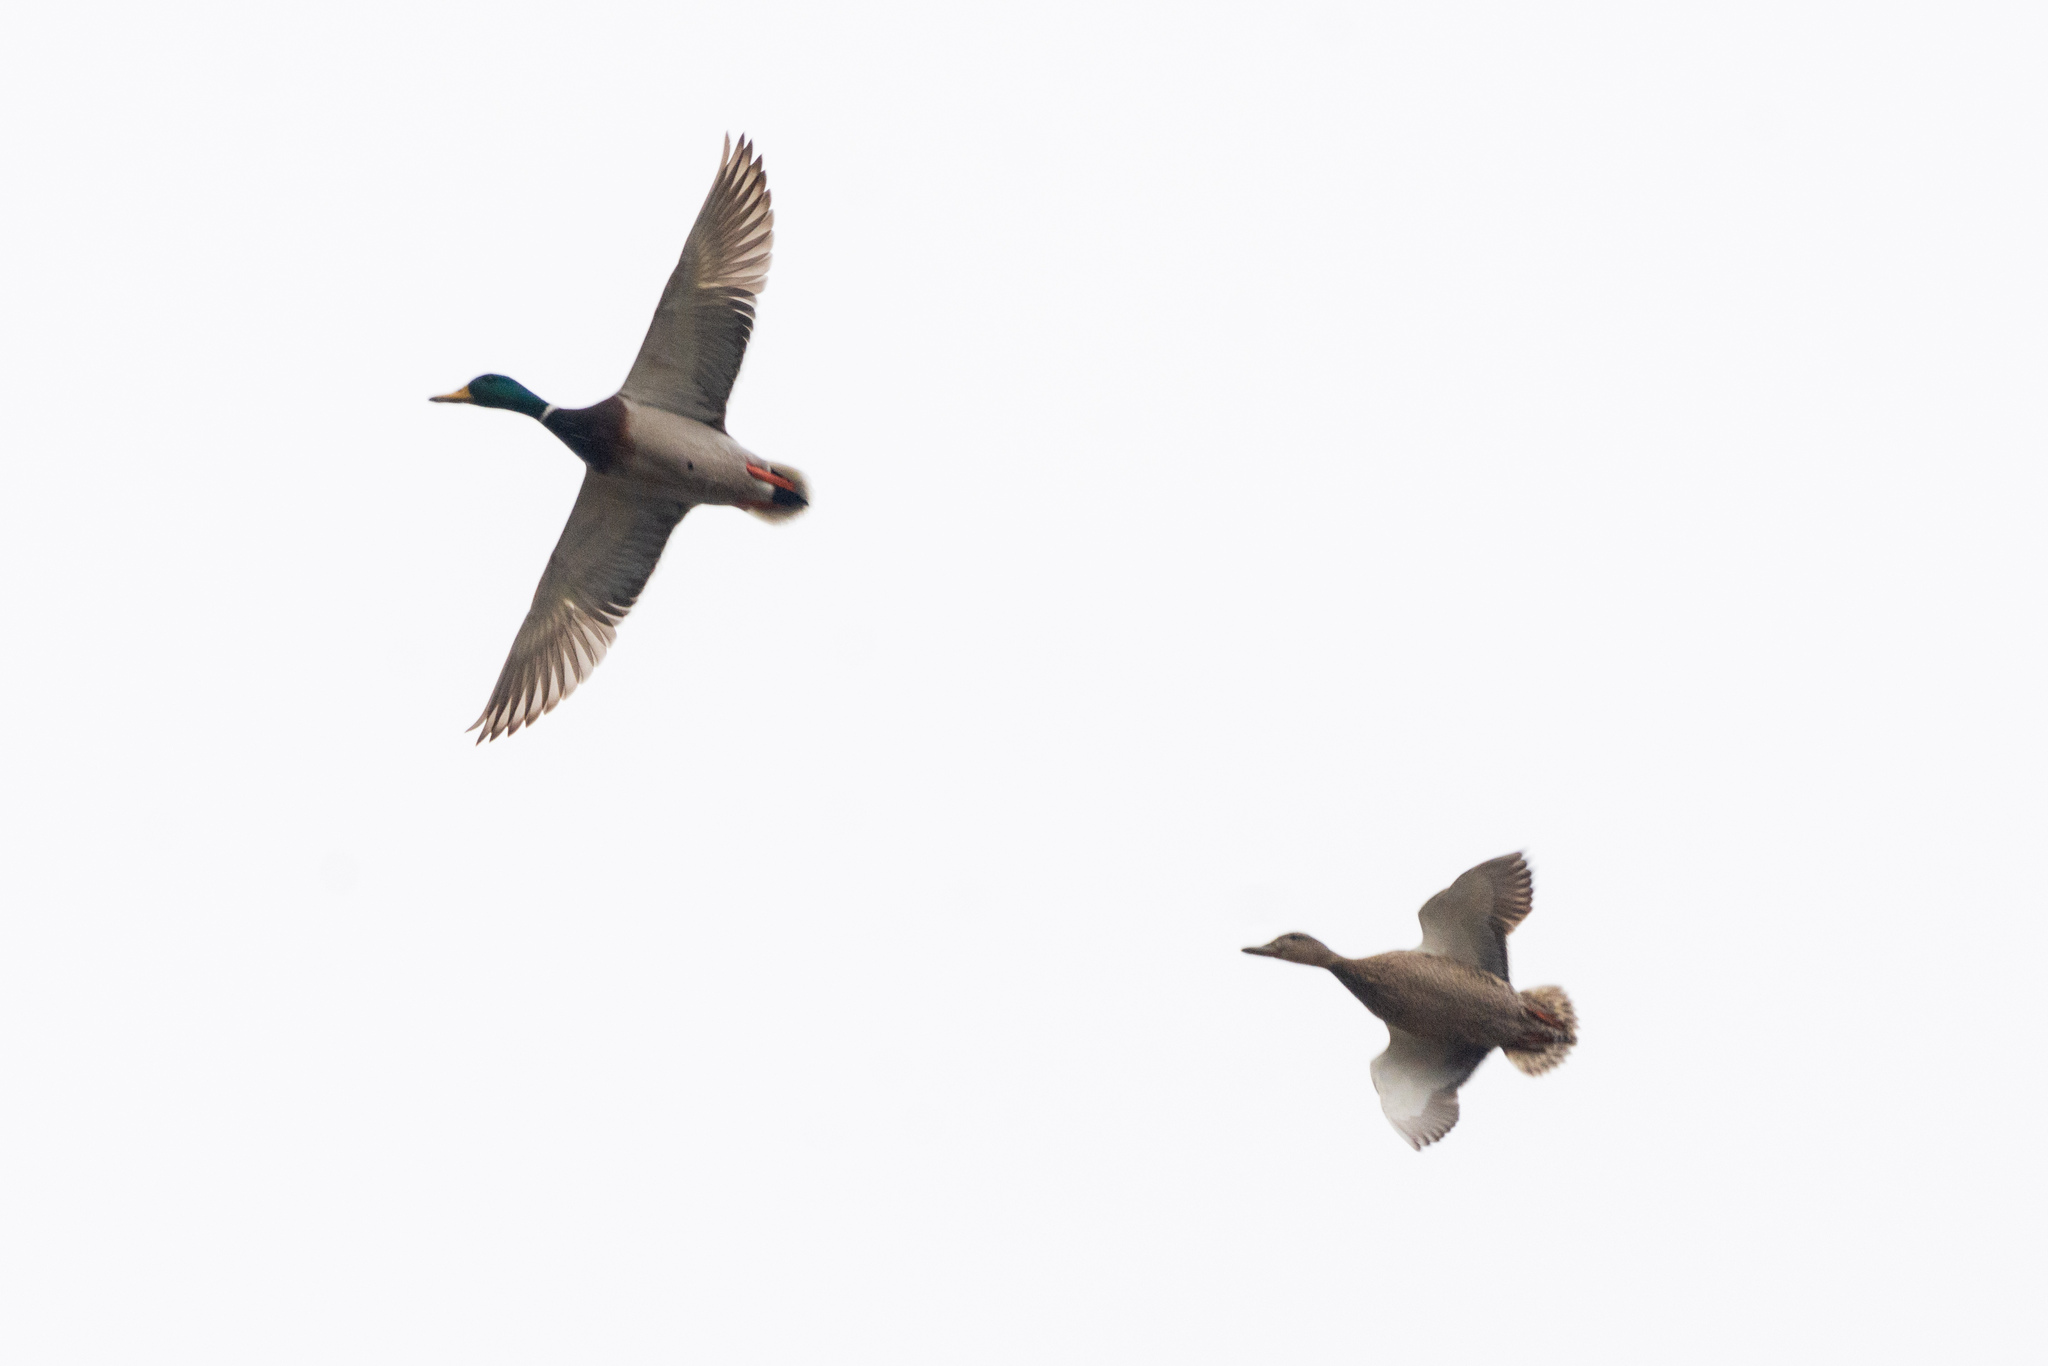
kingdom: Animalia
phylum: Chordata
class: Aves
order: Anseriformes
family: Anatidae
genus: Anas
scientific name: Anas platyrhynchos
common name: Mallard
